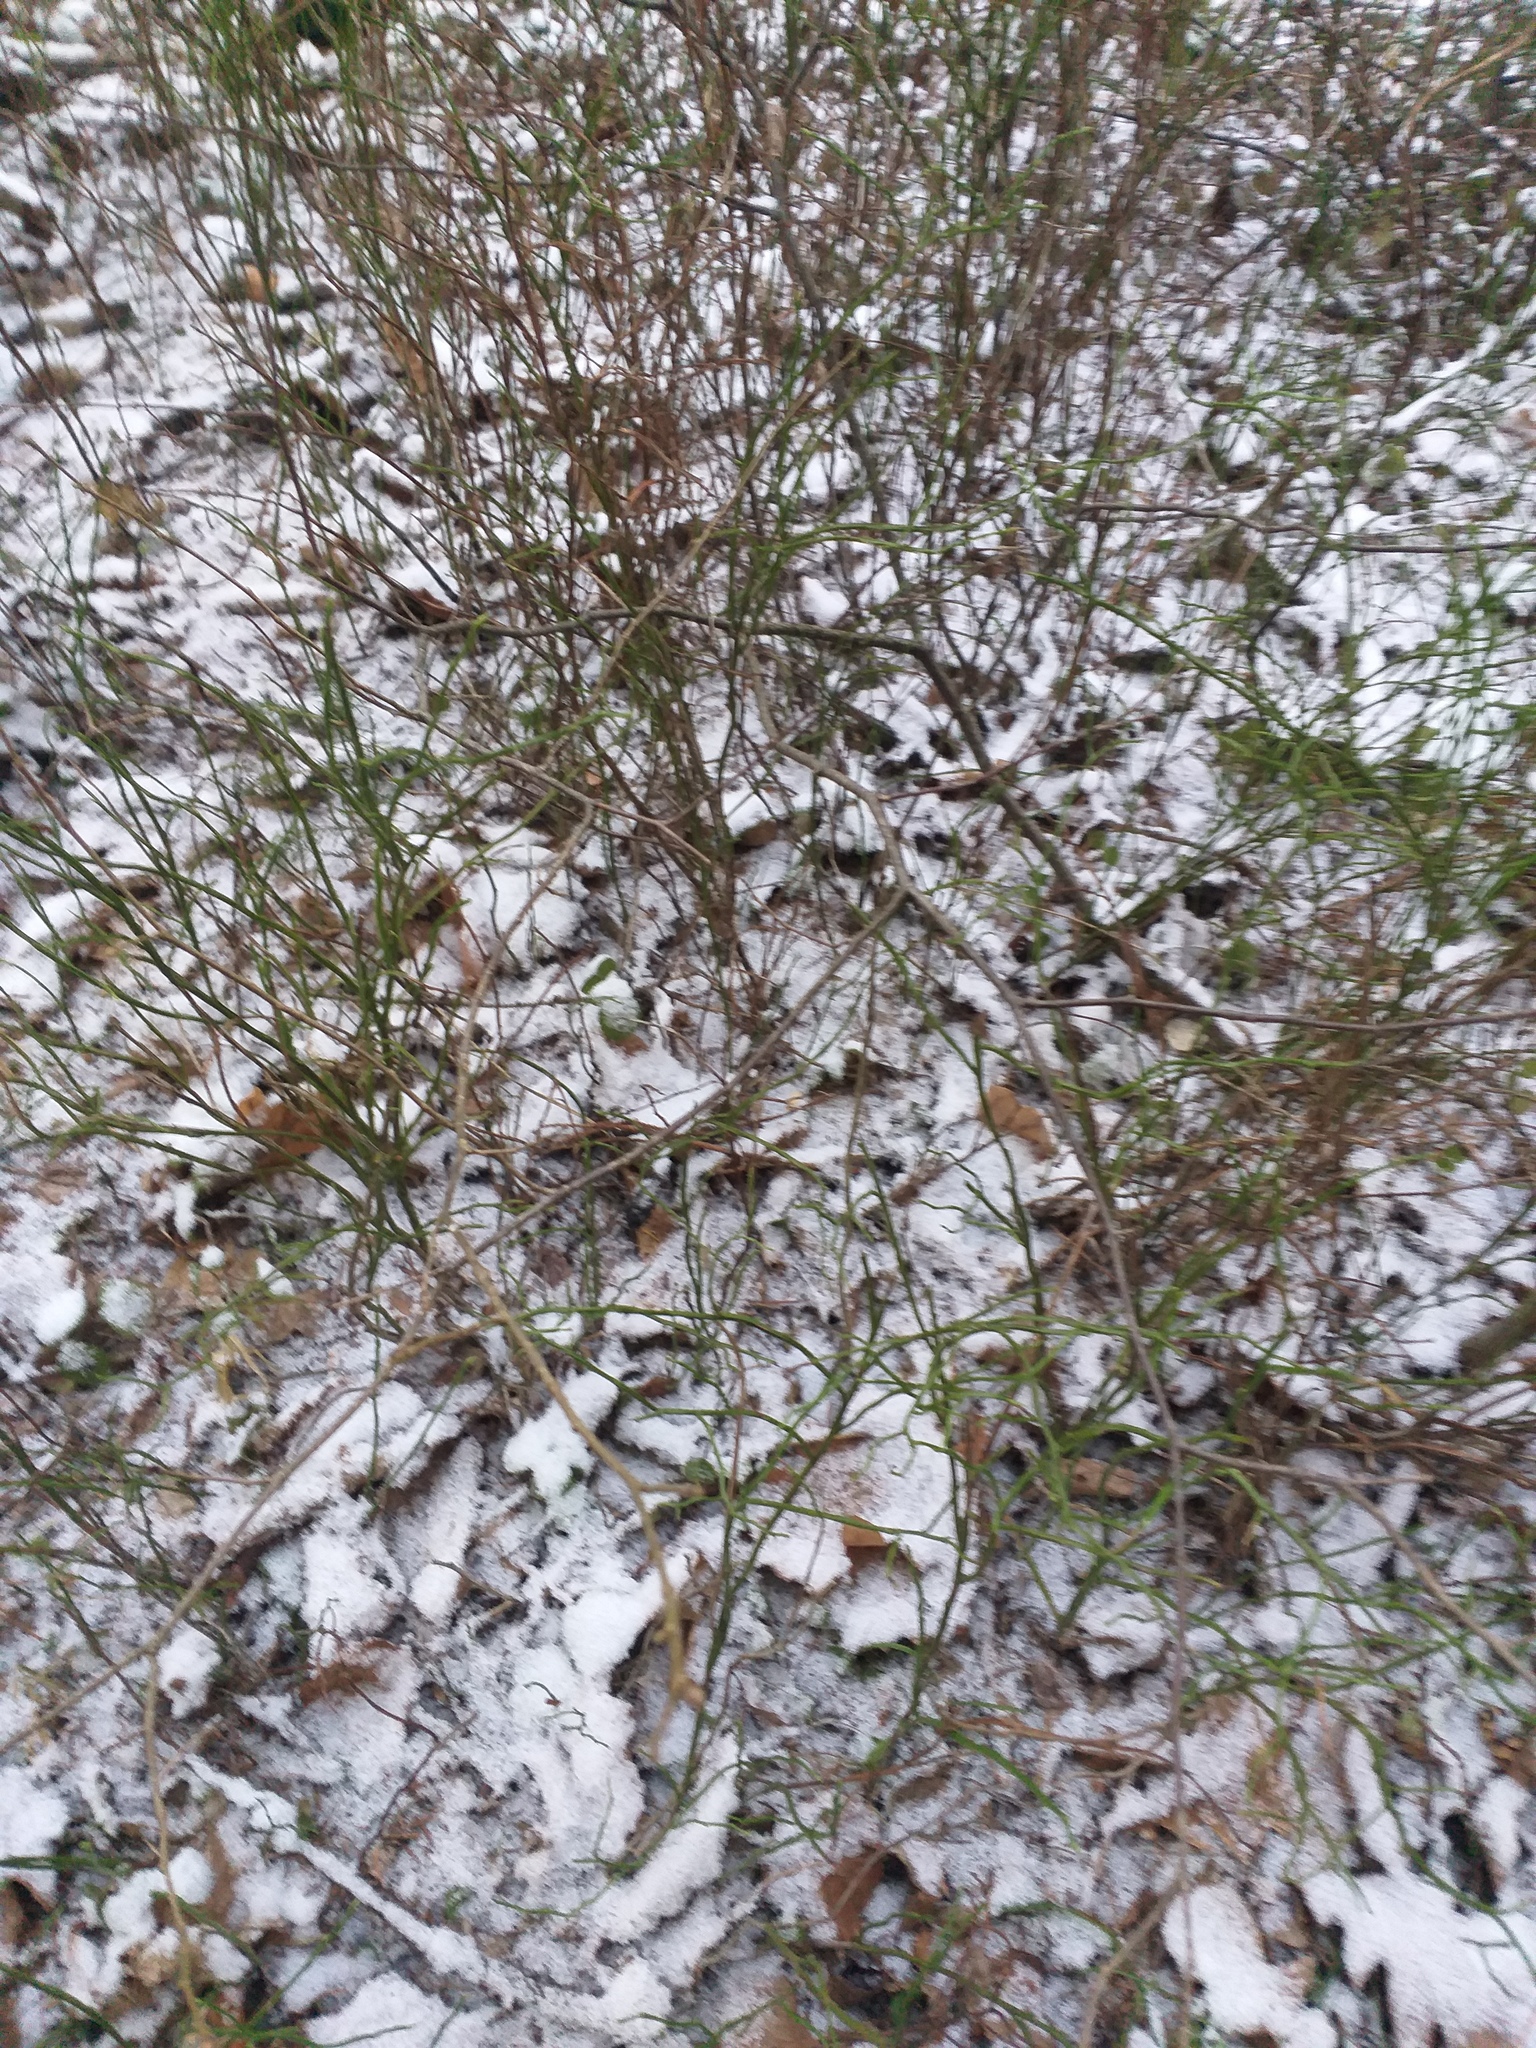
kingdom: Plantae
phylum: Tracheophyta
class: Magnoliopsida
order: Ericales
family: Ericaceae
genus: Vaccinium
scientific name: Vaccinium myrtillus
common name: Bilberry
